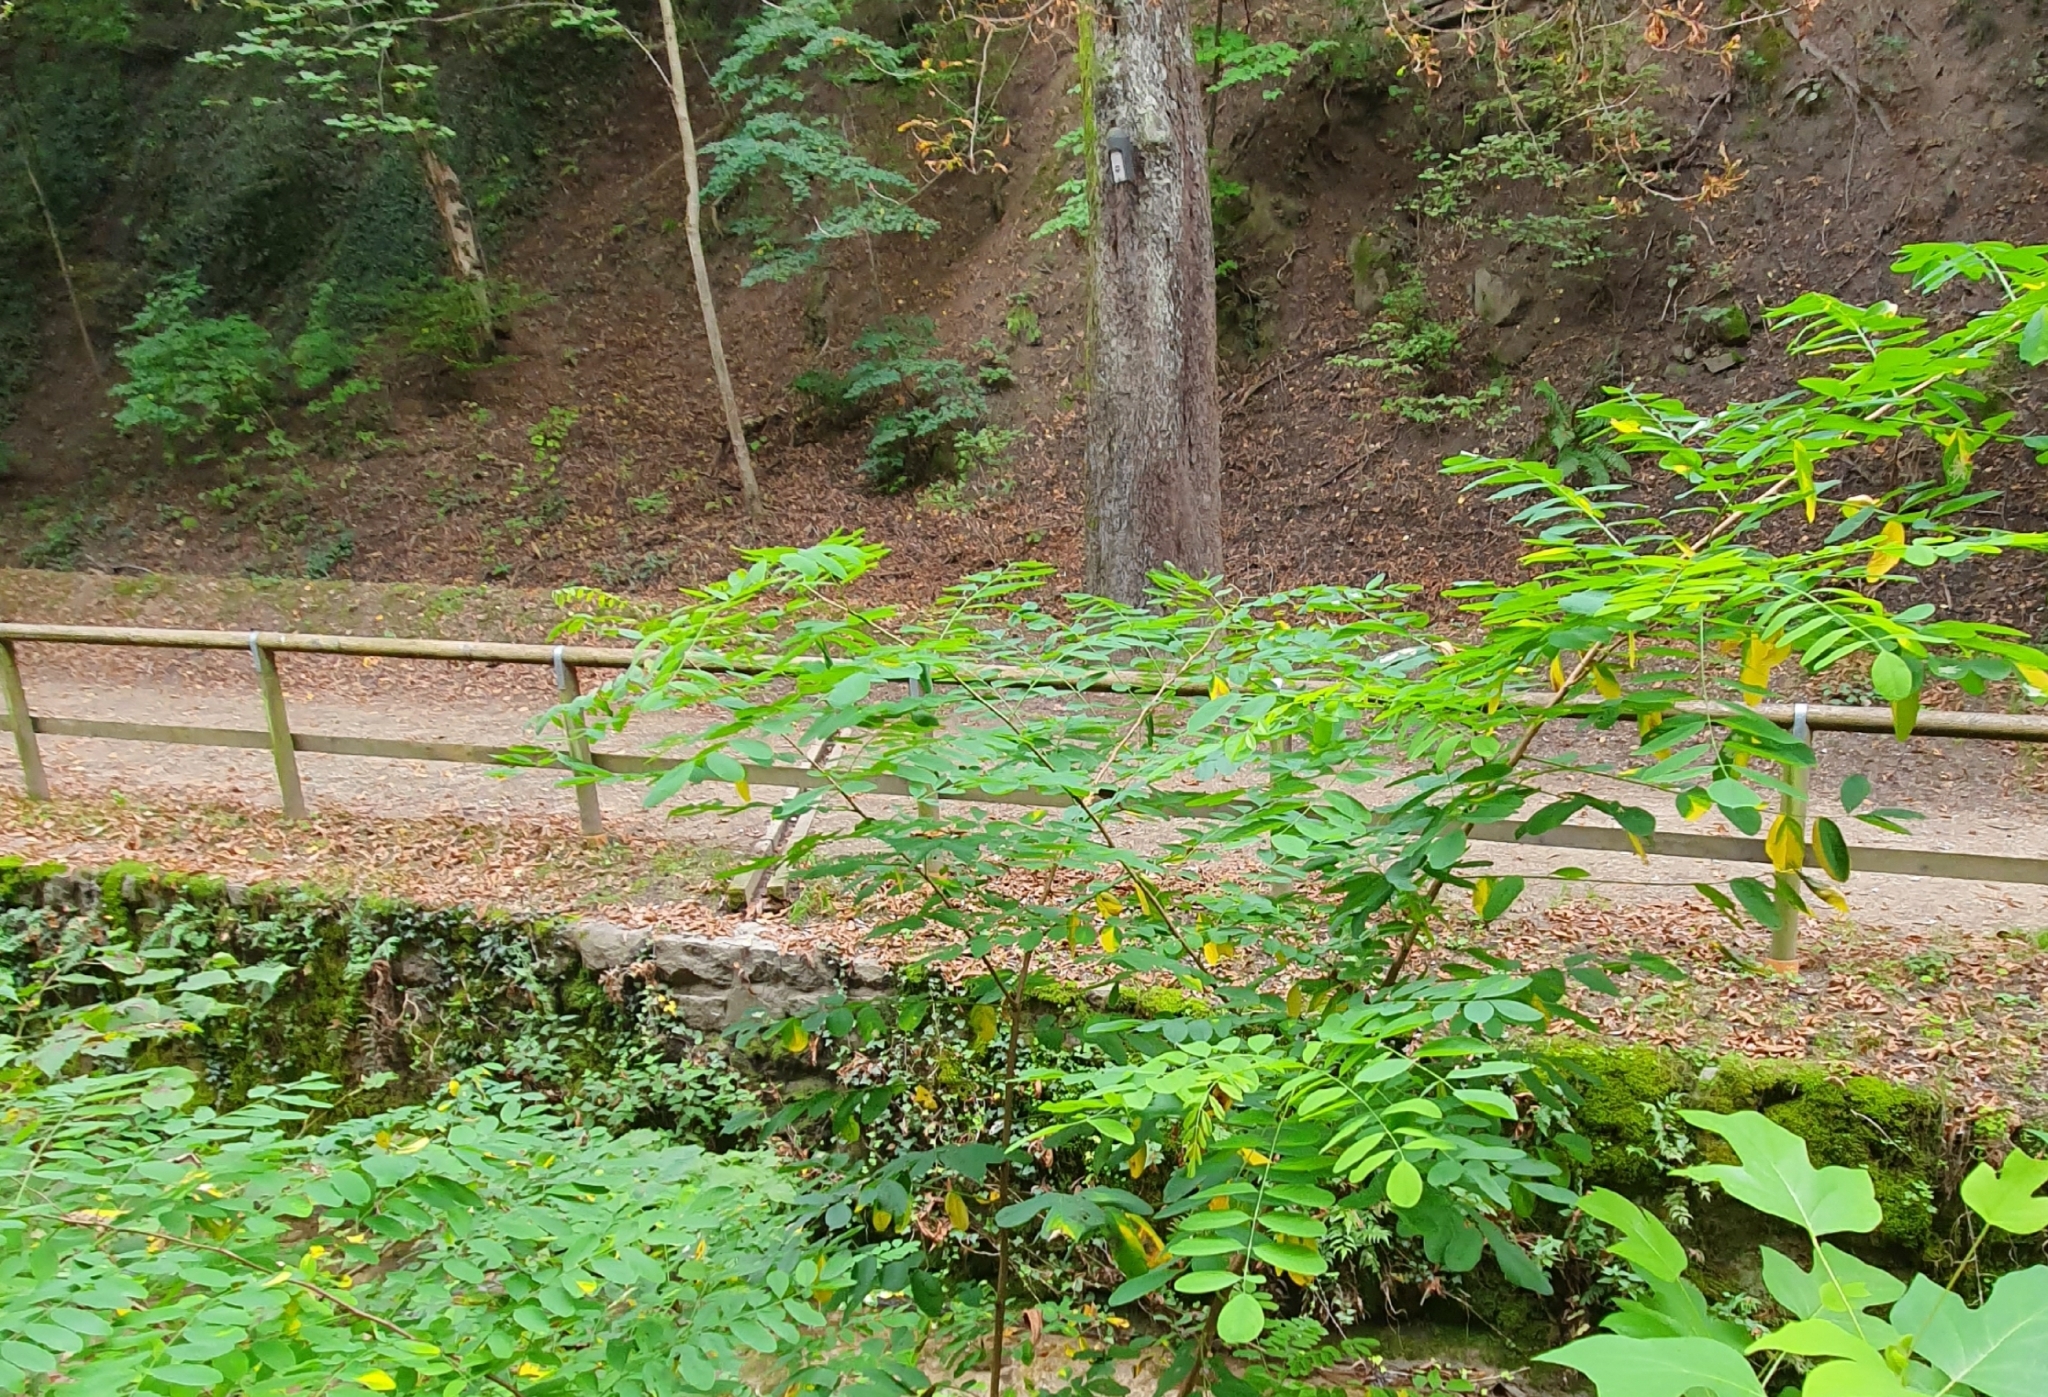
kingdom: Plantae
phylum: Tracheophyta
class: Magnoliopsida
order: Fabales
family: Fabaceae
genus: Robinia
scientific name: Robinia pseudoacacia
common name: Black locust
